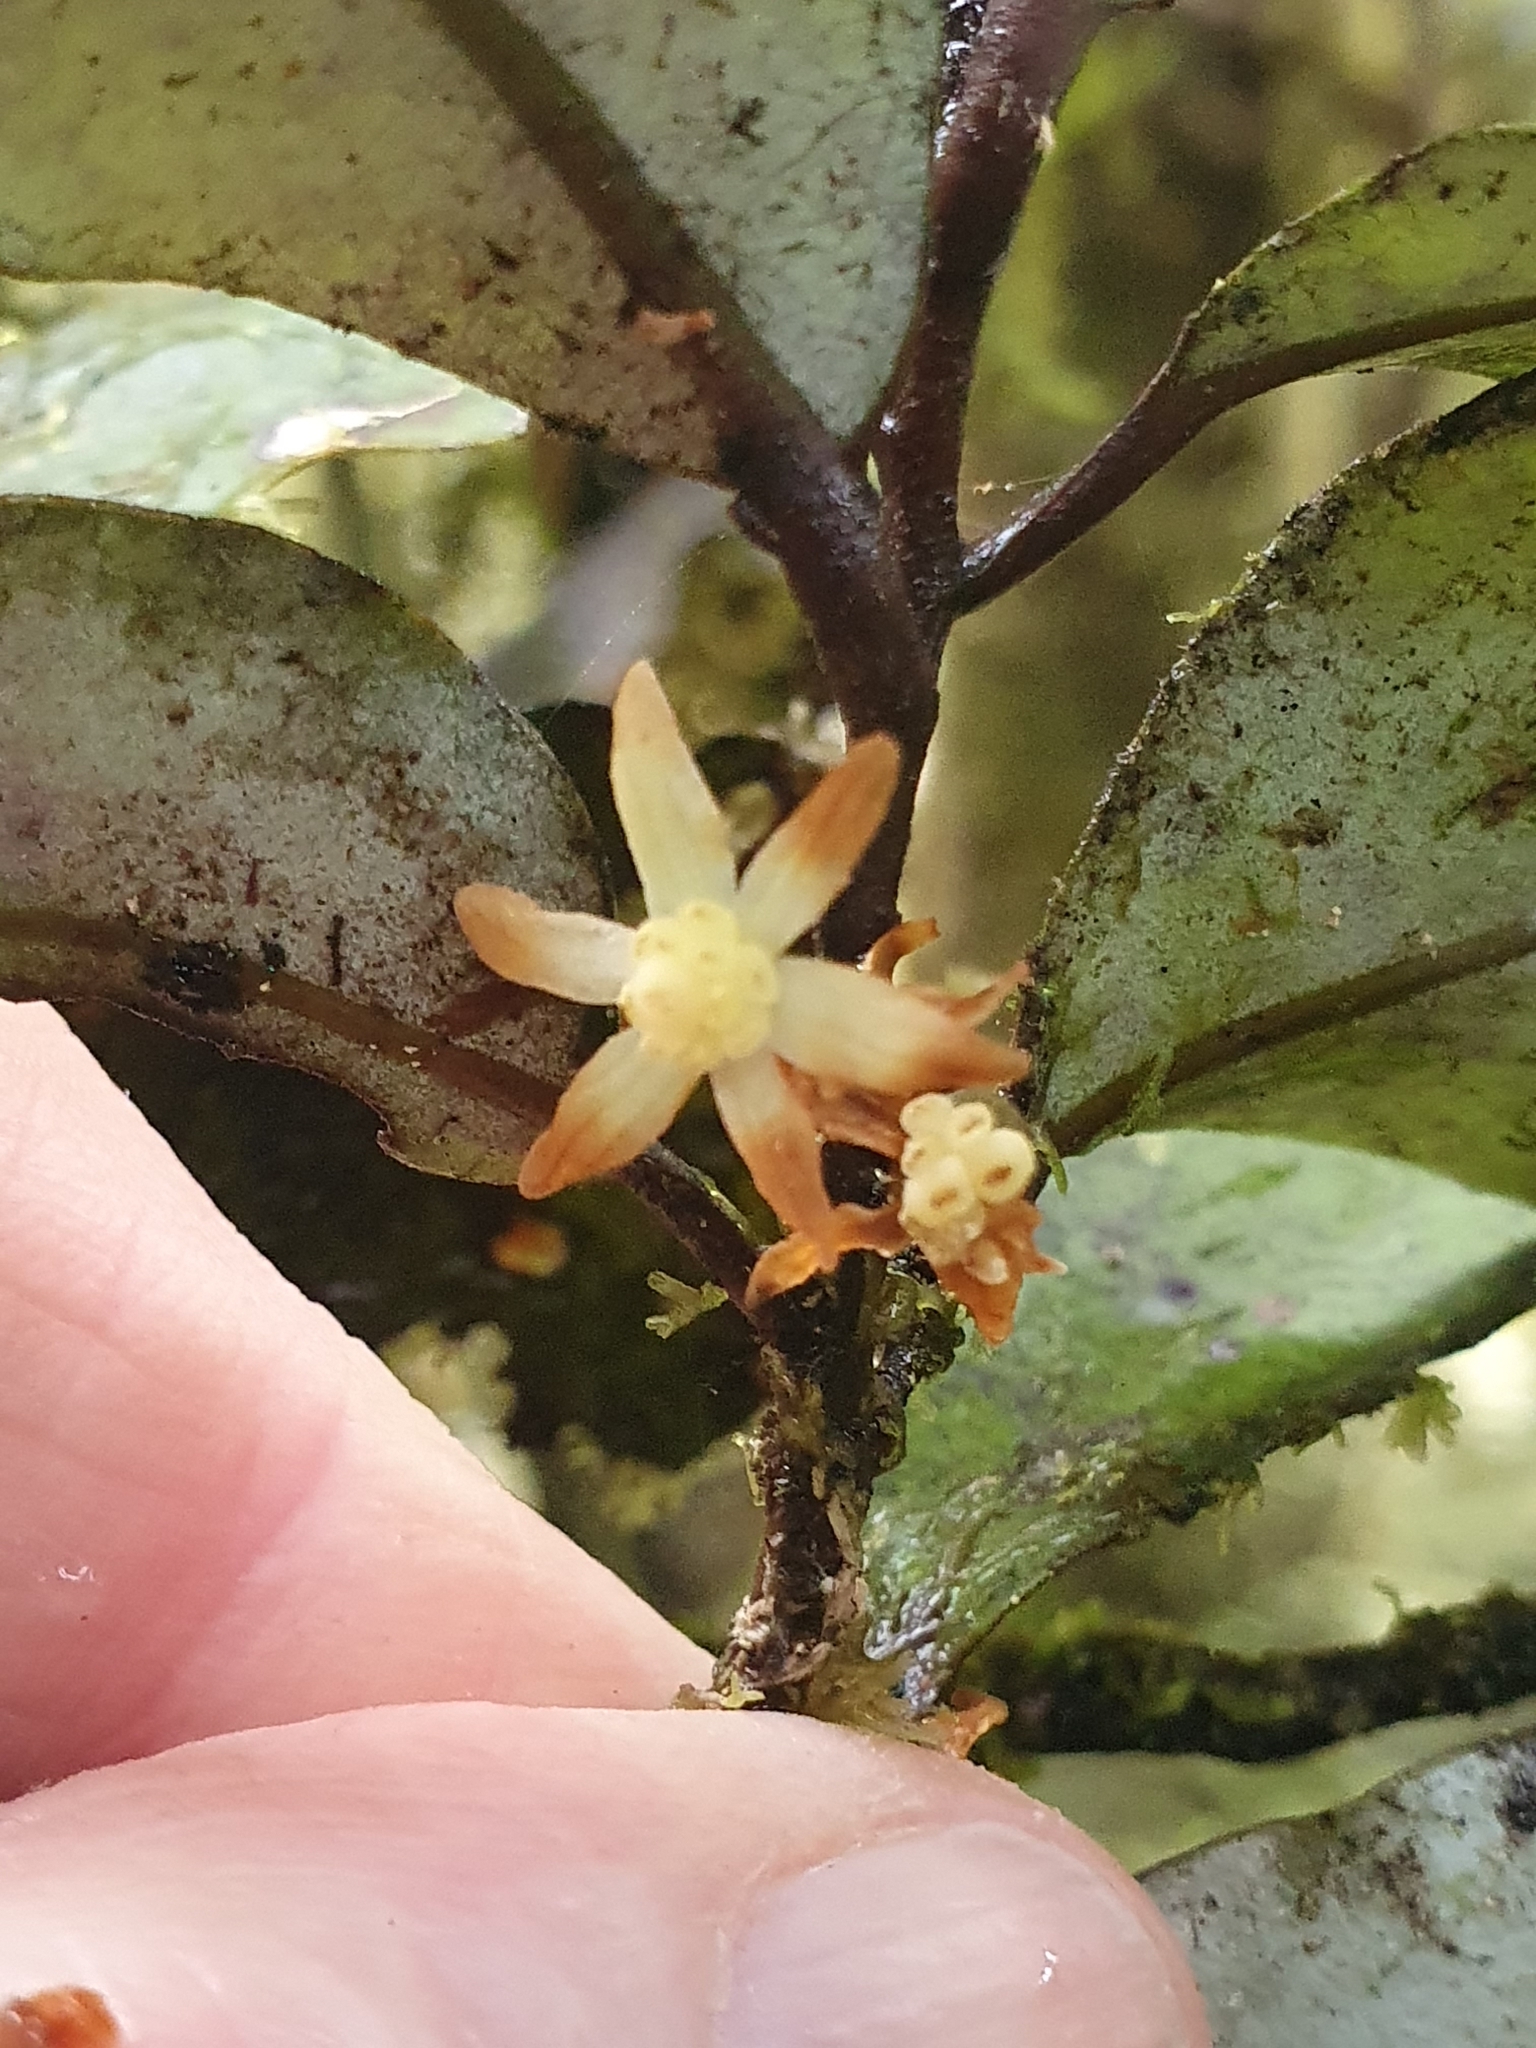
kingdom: Plantae
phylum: Tracheophyta
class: Magnoliopsida
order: Canellales
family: Winteraceae
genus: Pseudowintera
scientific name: Pseudowintera colorata
